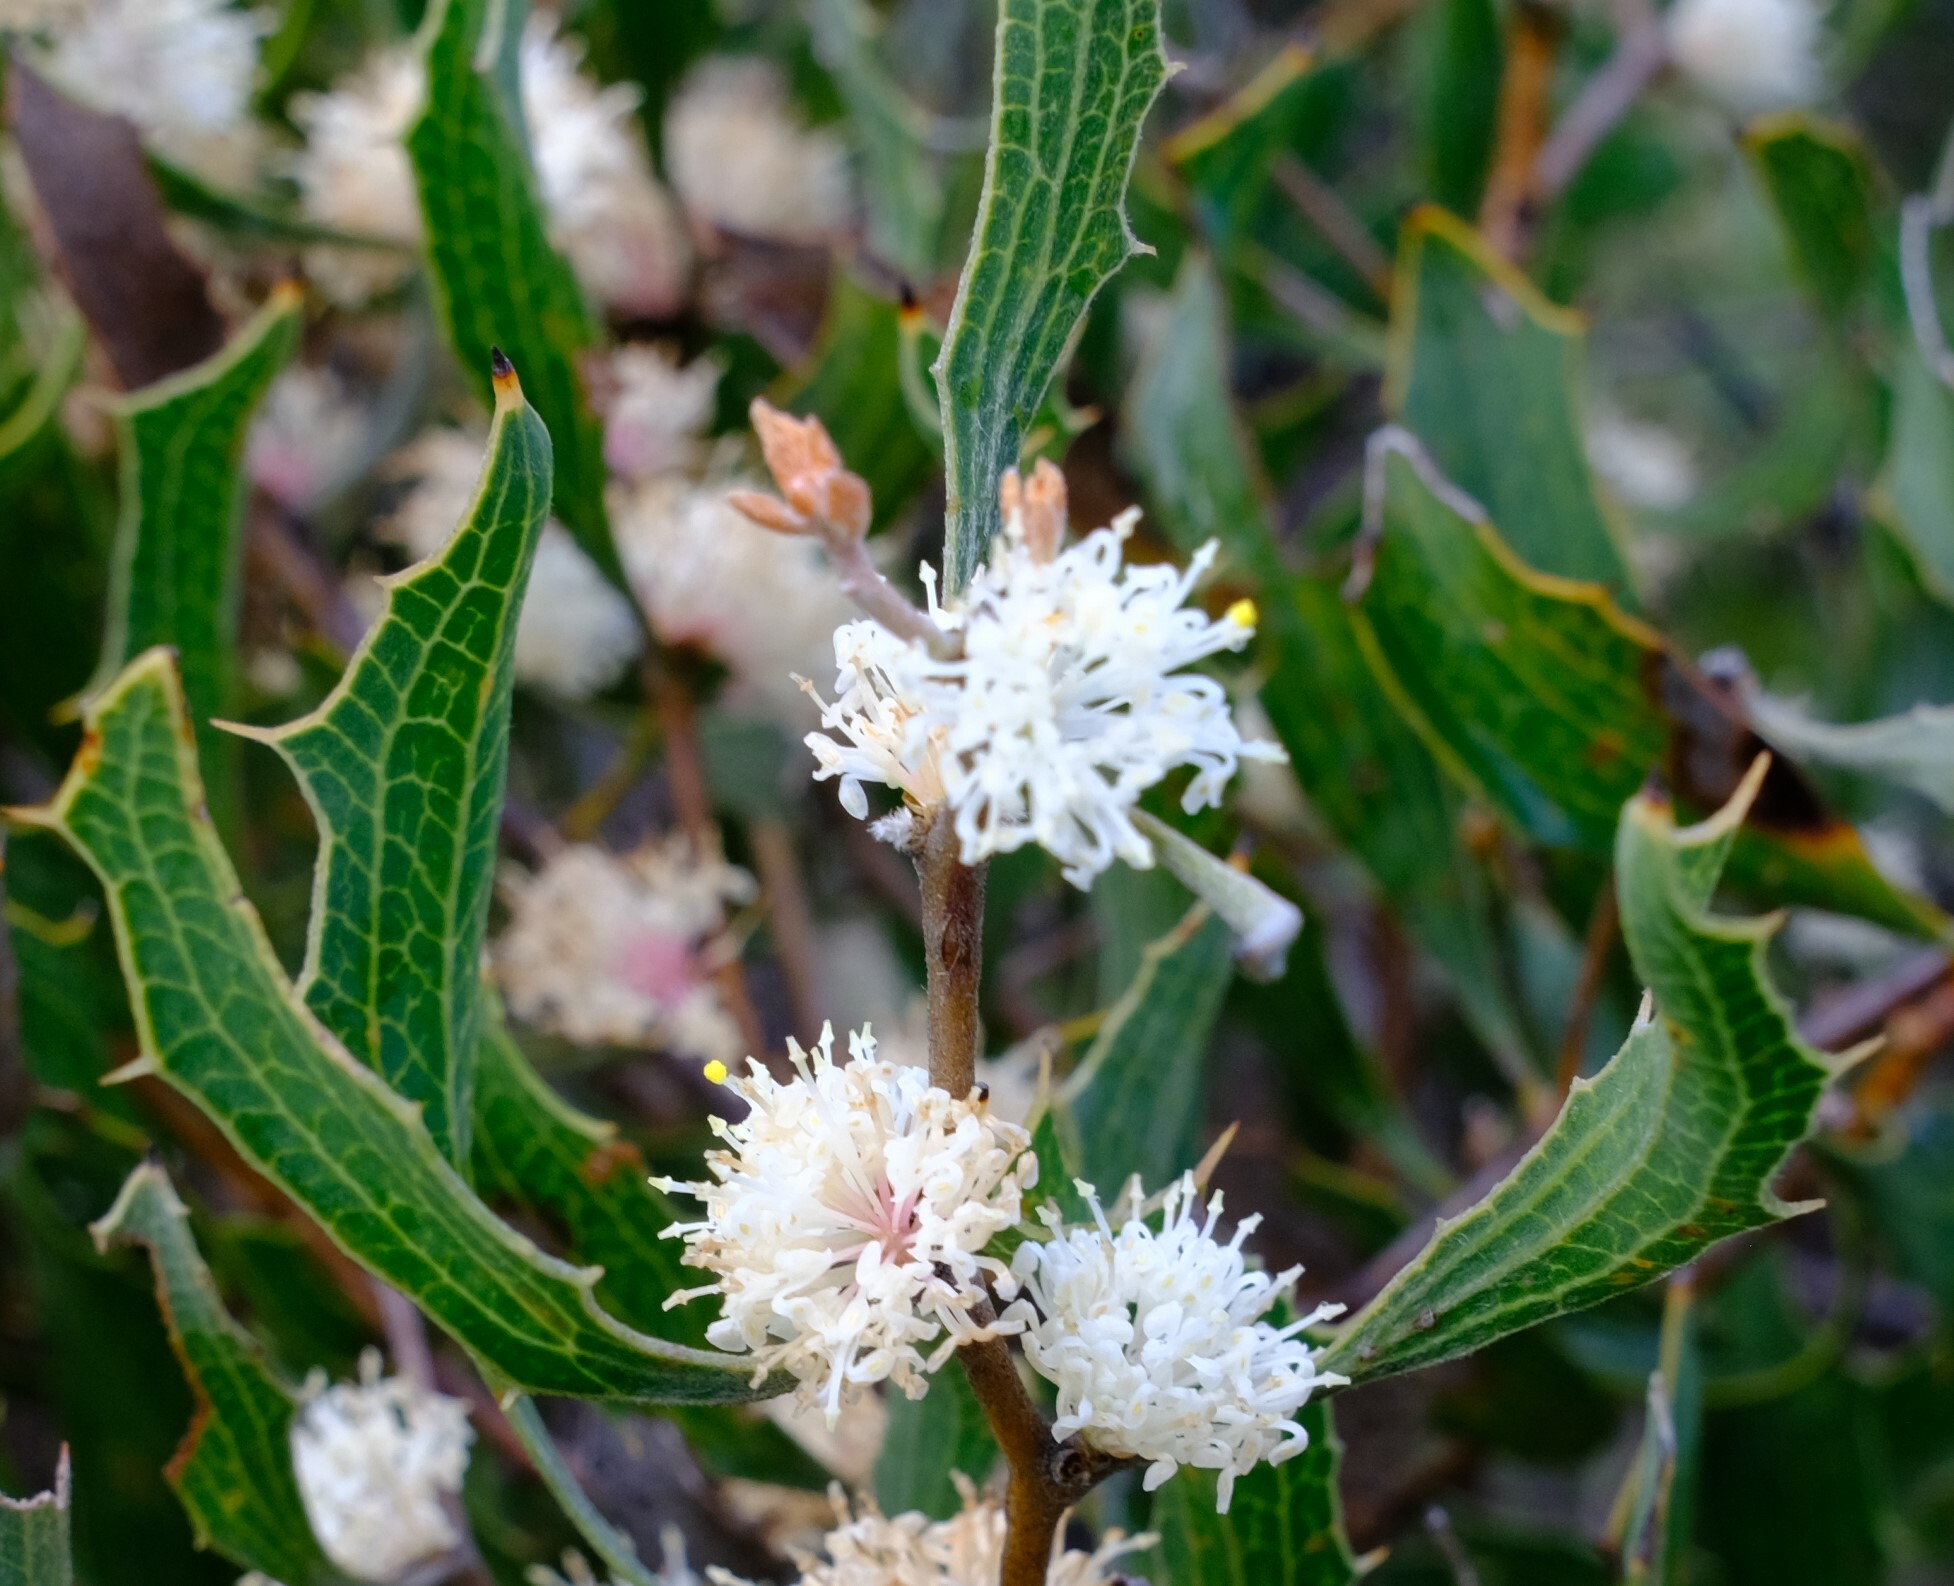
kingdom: Plantae
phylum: Tracheophyta
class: Magnoliopsida
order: Proteales
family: Proteaceae
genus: Hakea
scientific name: Hakea anadenia
